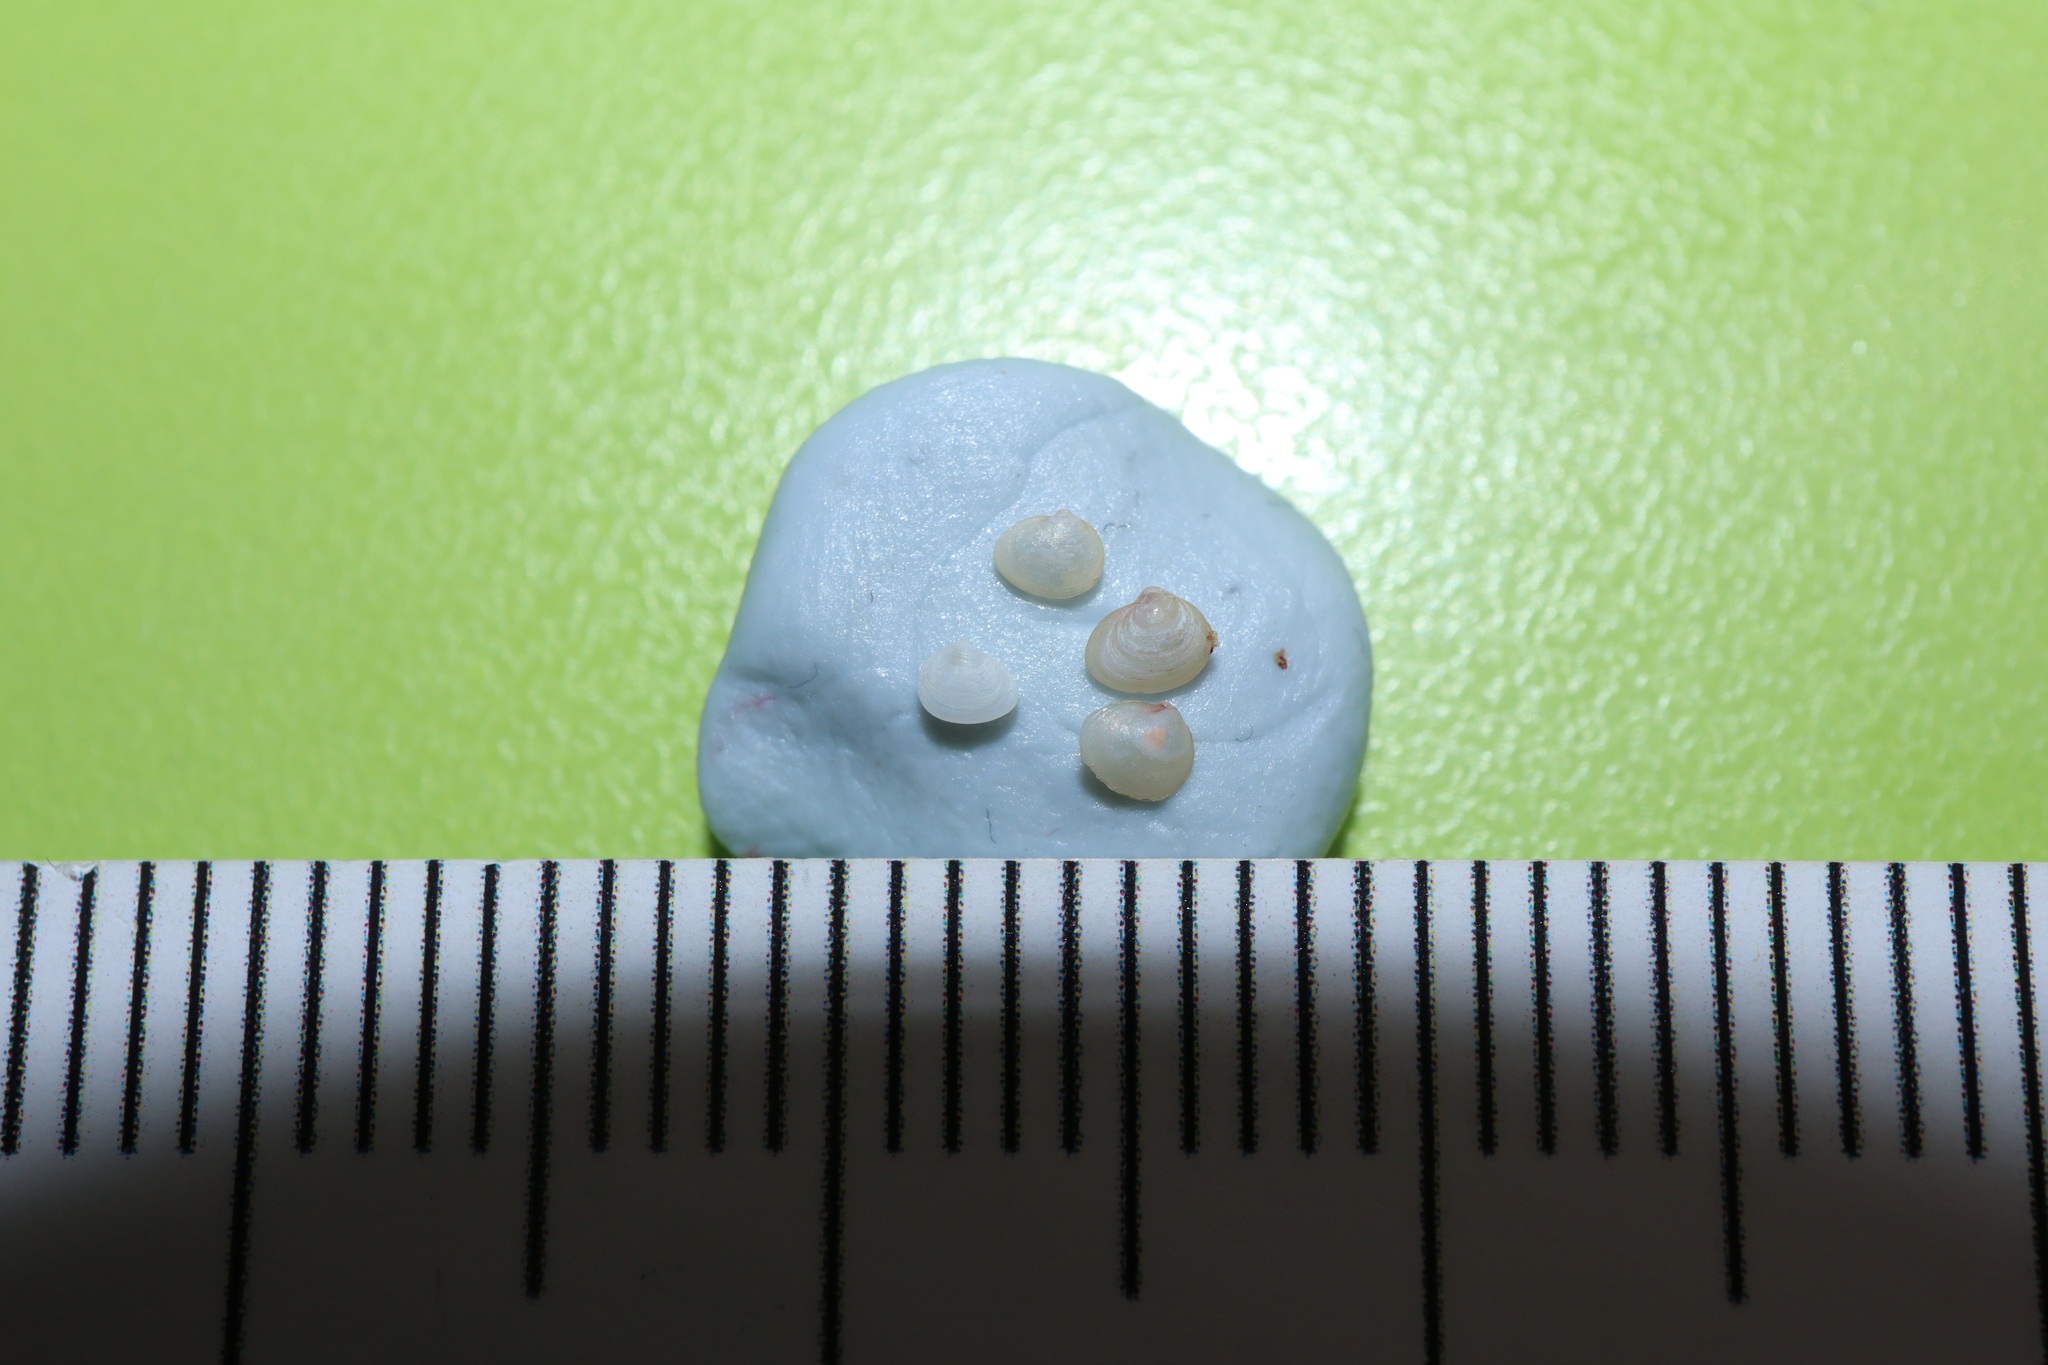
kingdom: Animalia
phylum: Mollusca
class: Bivalvia
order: Galeommatida
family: Lasaeidae
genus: Lasaea
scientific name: Lasaea australis
